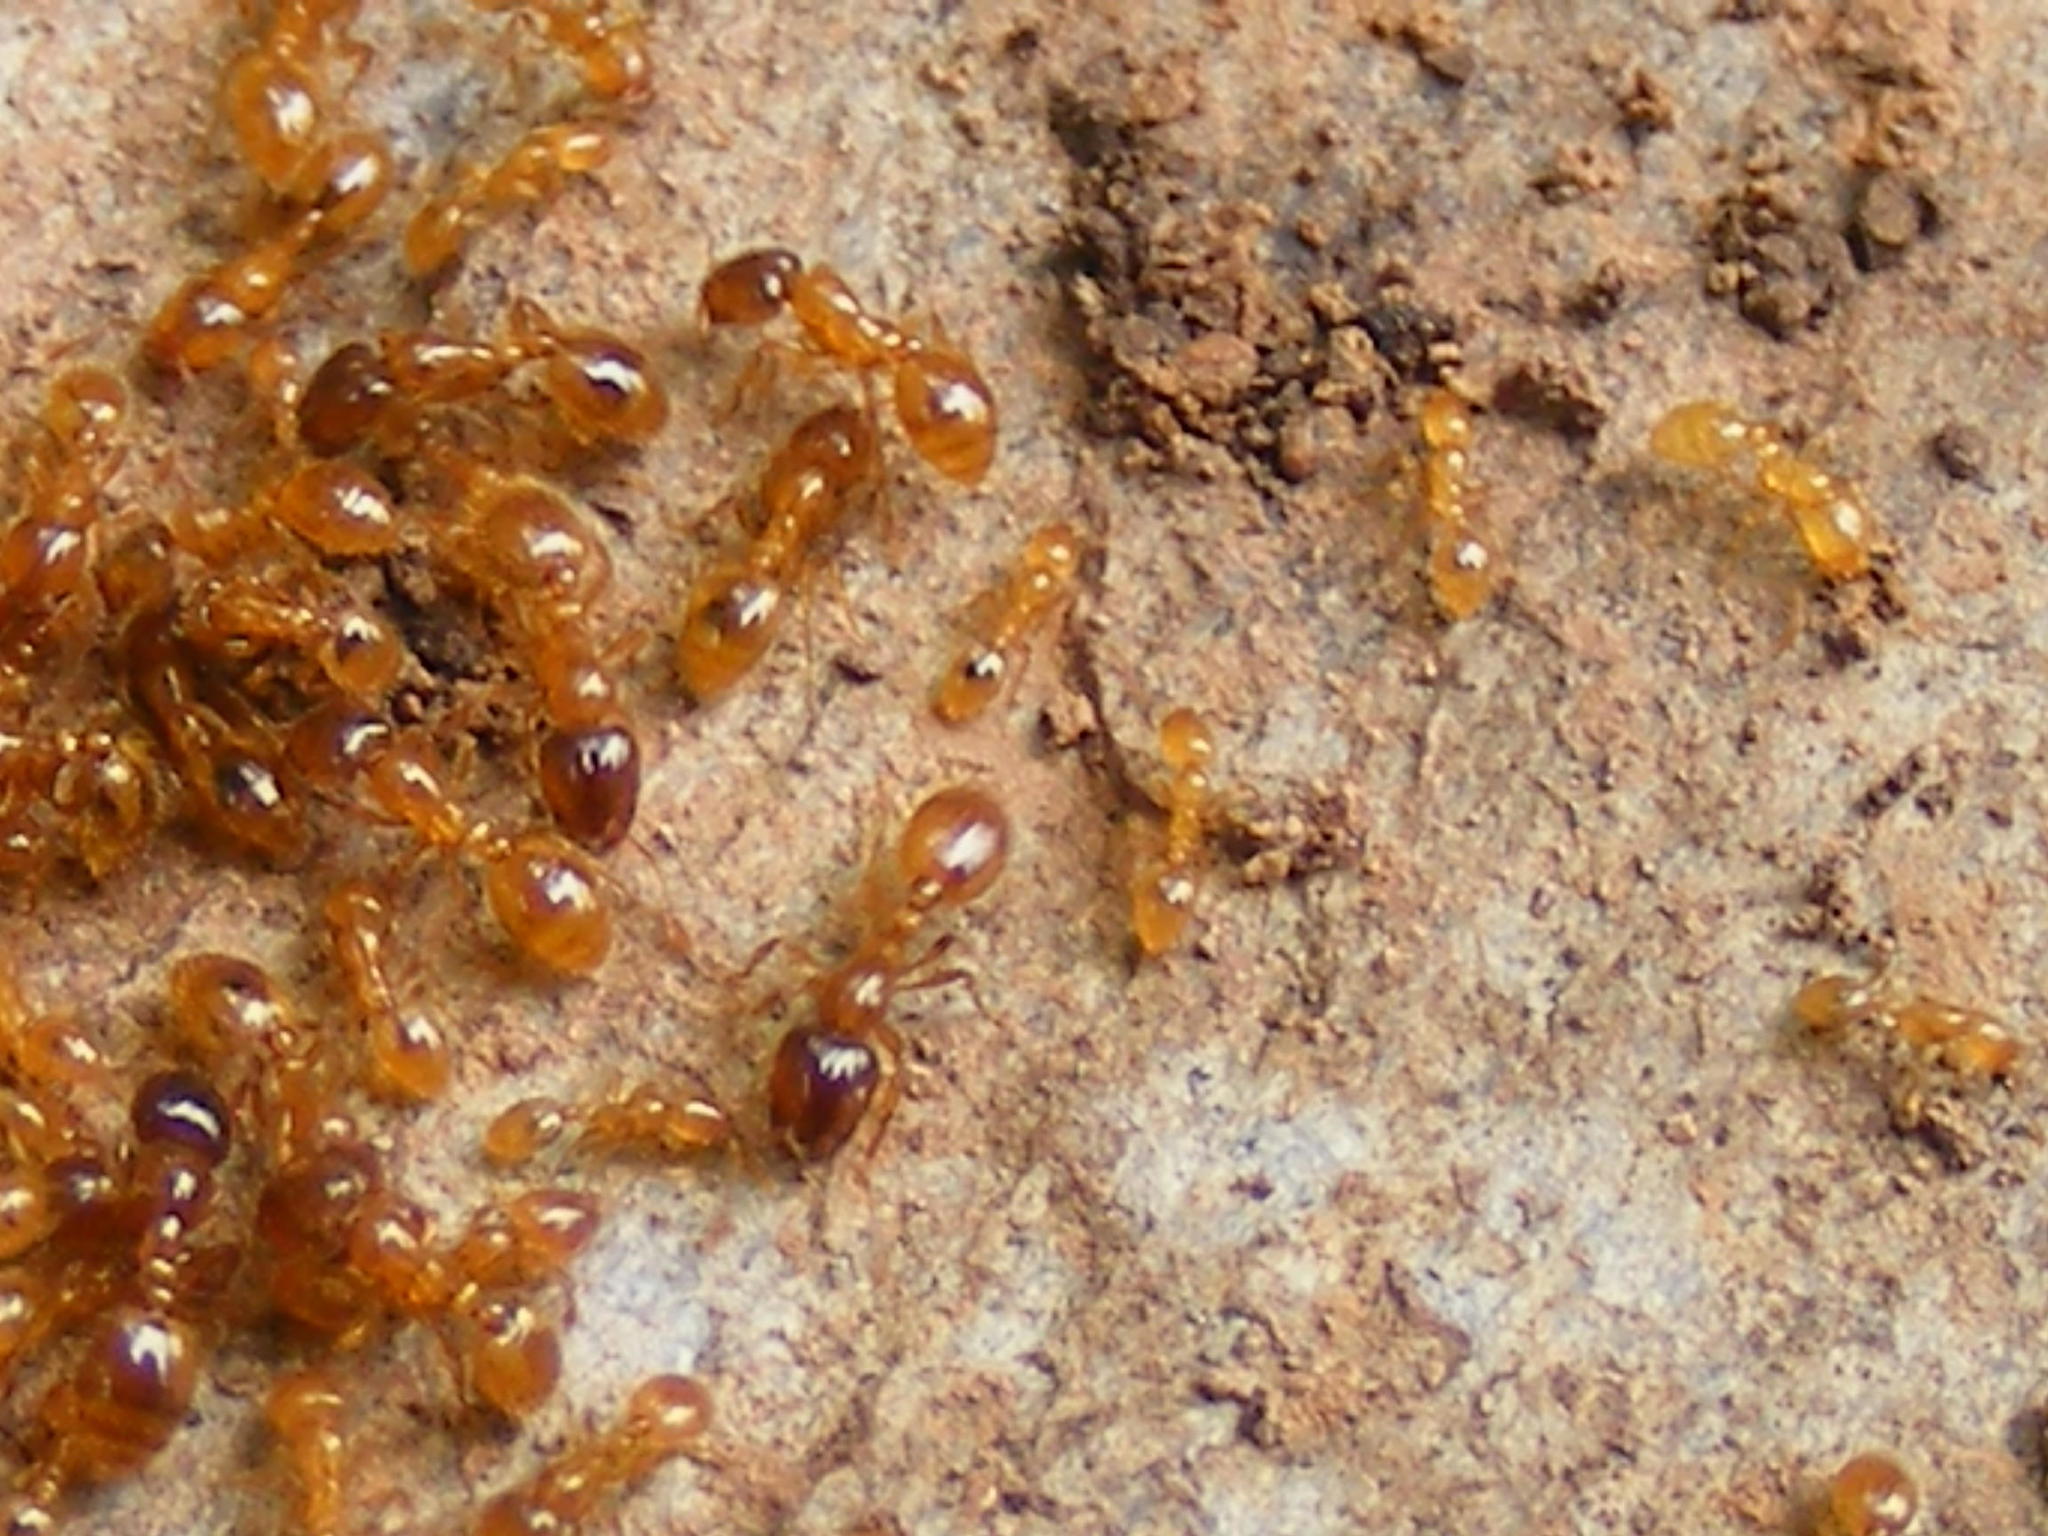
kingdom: Animalia
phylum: Arthropoda
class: Insecta
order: Hymenoptera
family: Formicidae
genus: Solenopsis
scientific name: Solenopsis punctaticeps
